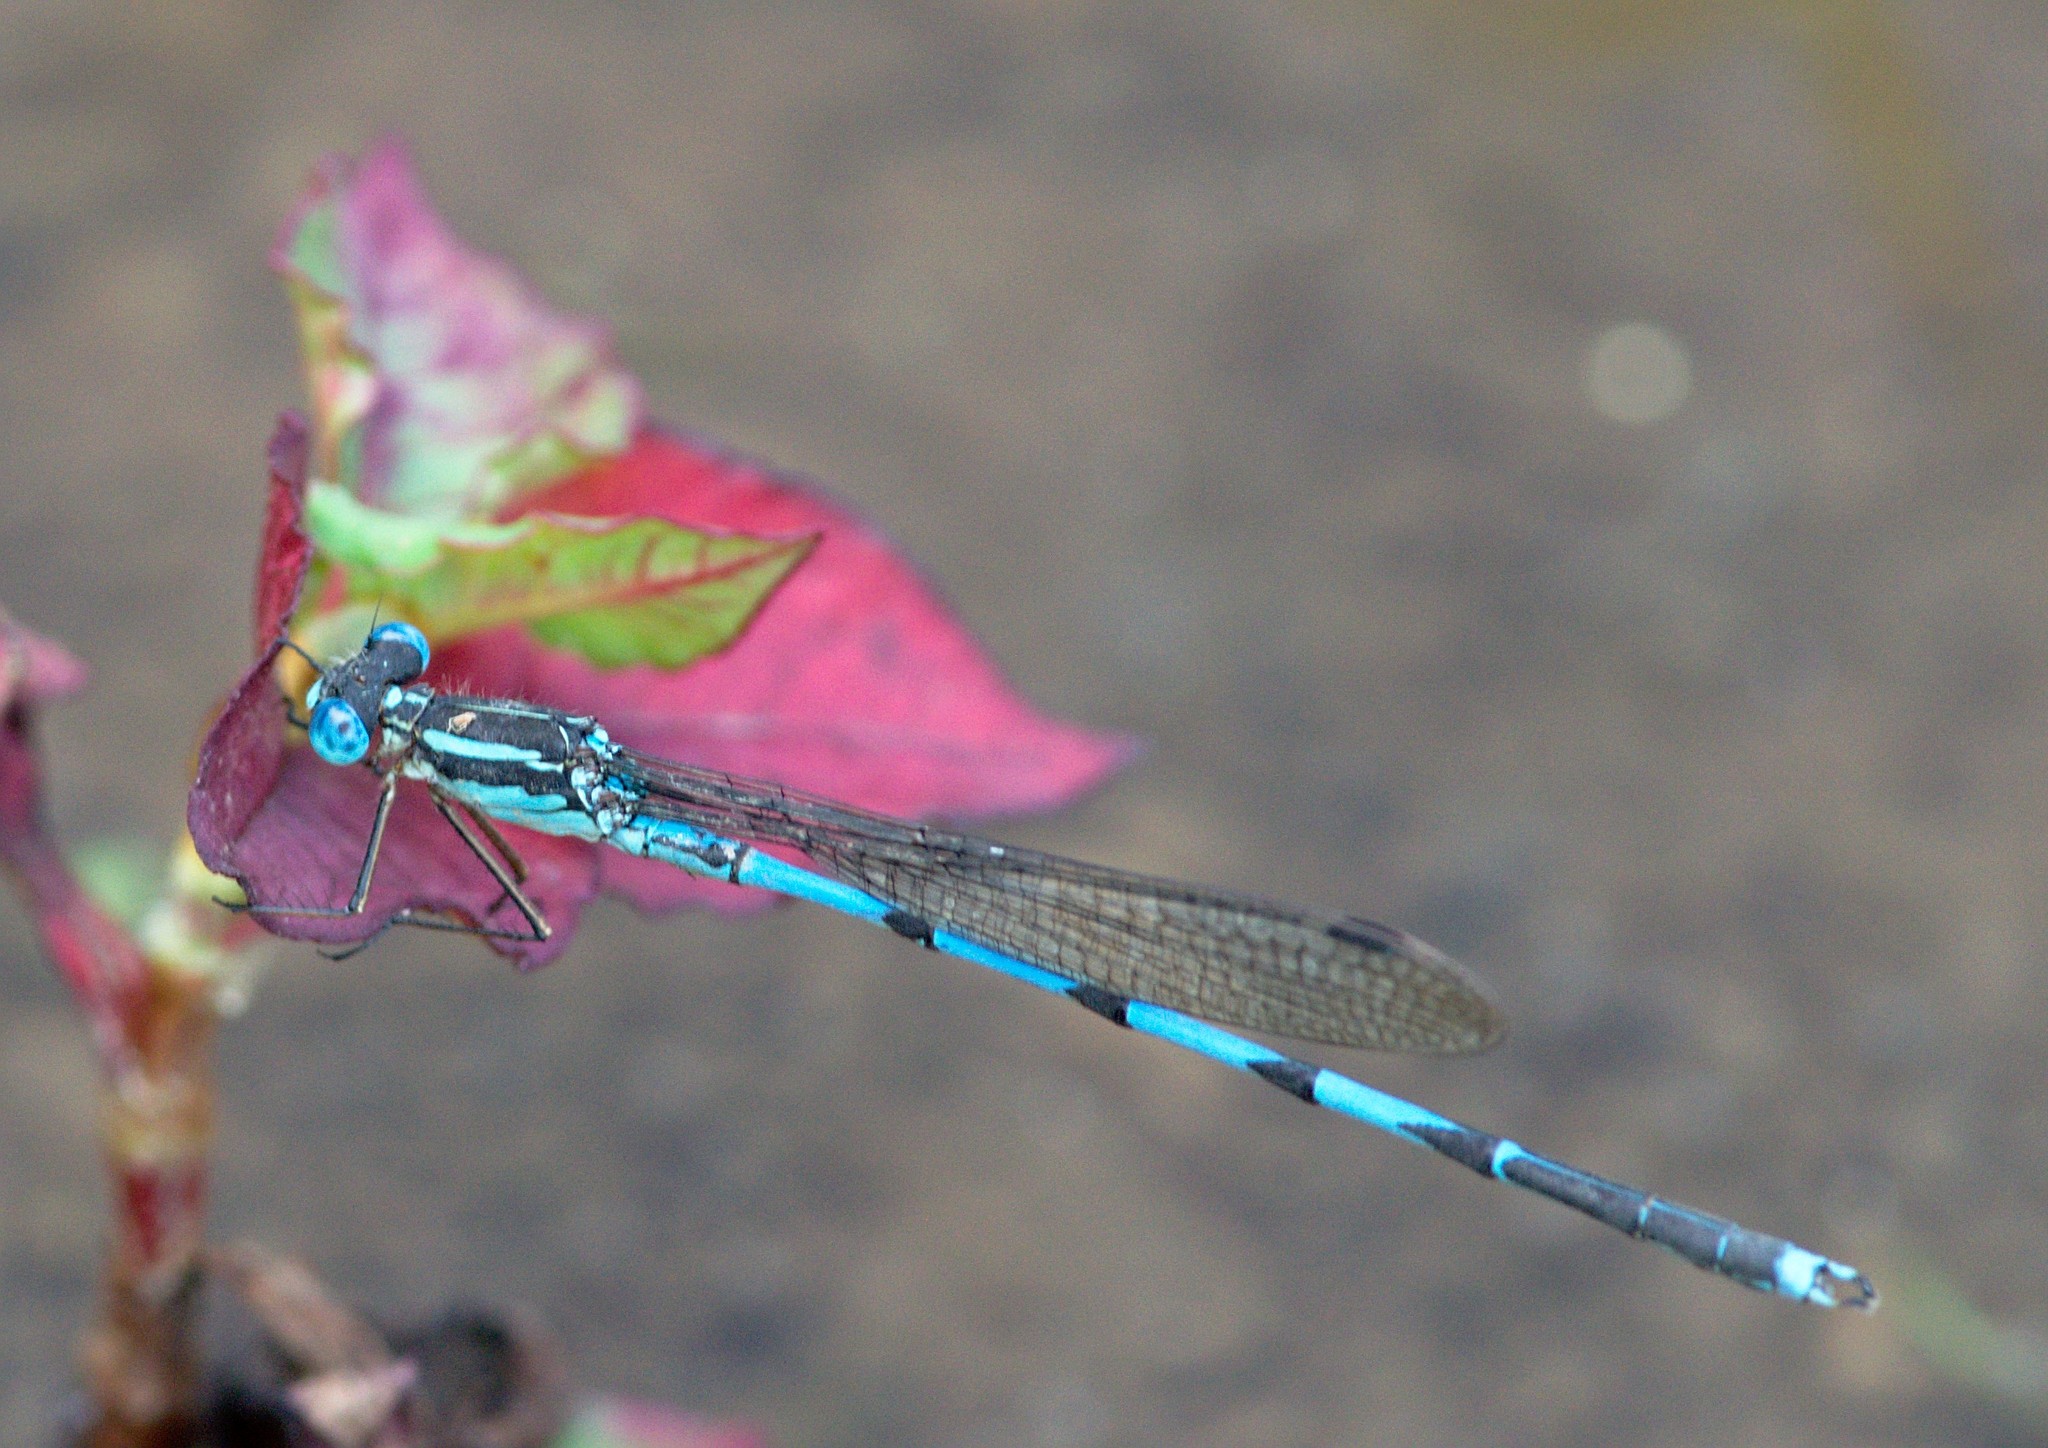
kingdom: Animalia
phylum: Arthropoda
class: Insecta
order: Odonata
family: Lestidae
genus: Indolestes
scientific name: Indolestes cyaneus
